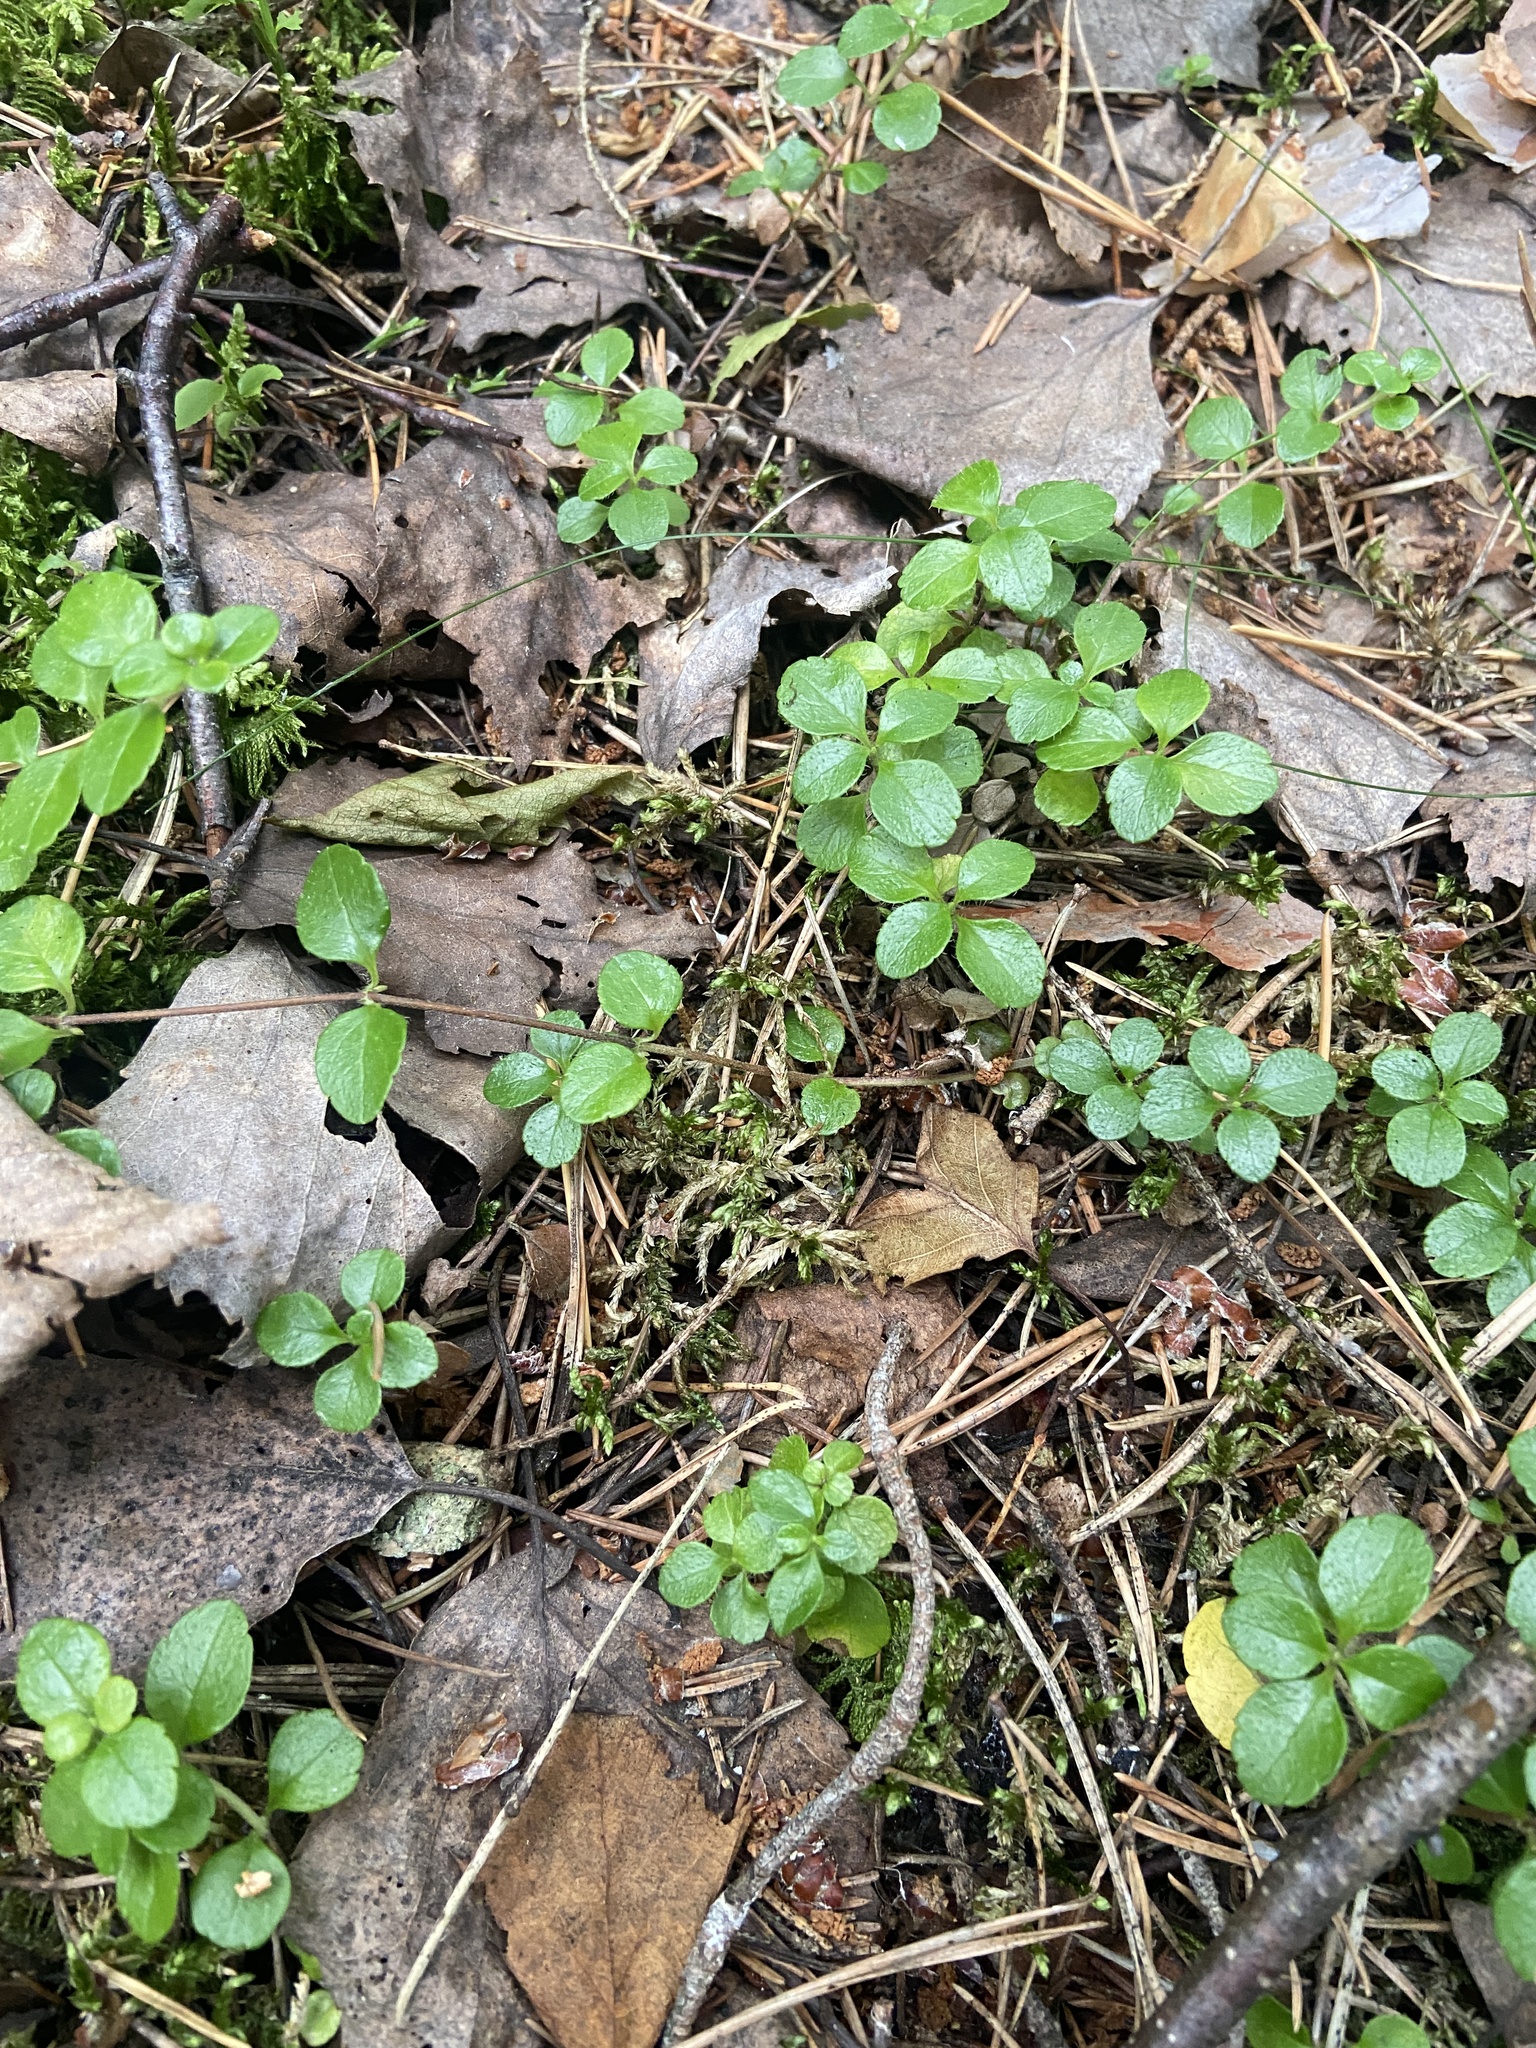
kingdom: Plantae
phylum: Tracheophyta
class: Magnoliopsida
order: Dipsacales
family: Caprifoliaceae
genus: Linnaea
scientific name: Linnaea borealis
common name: Twinflower
